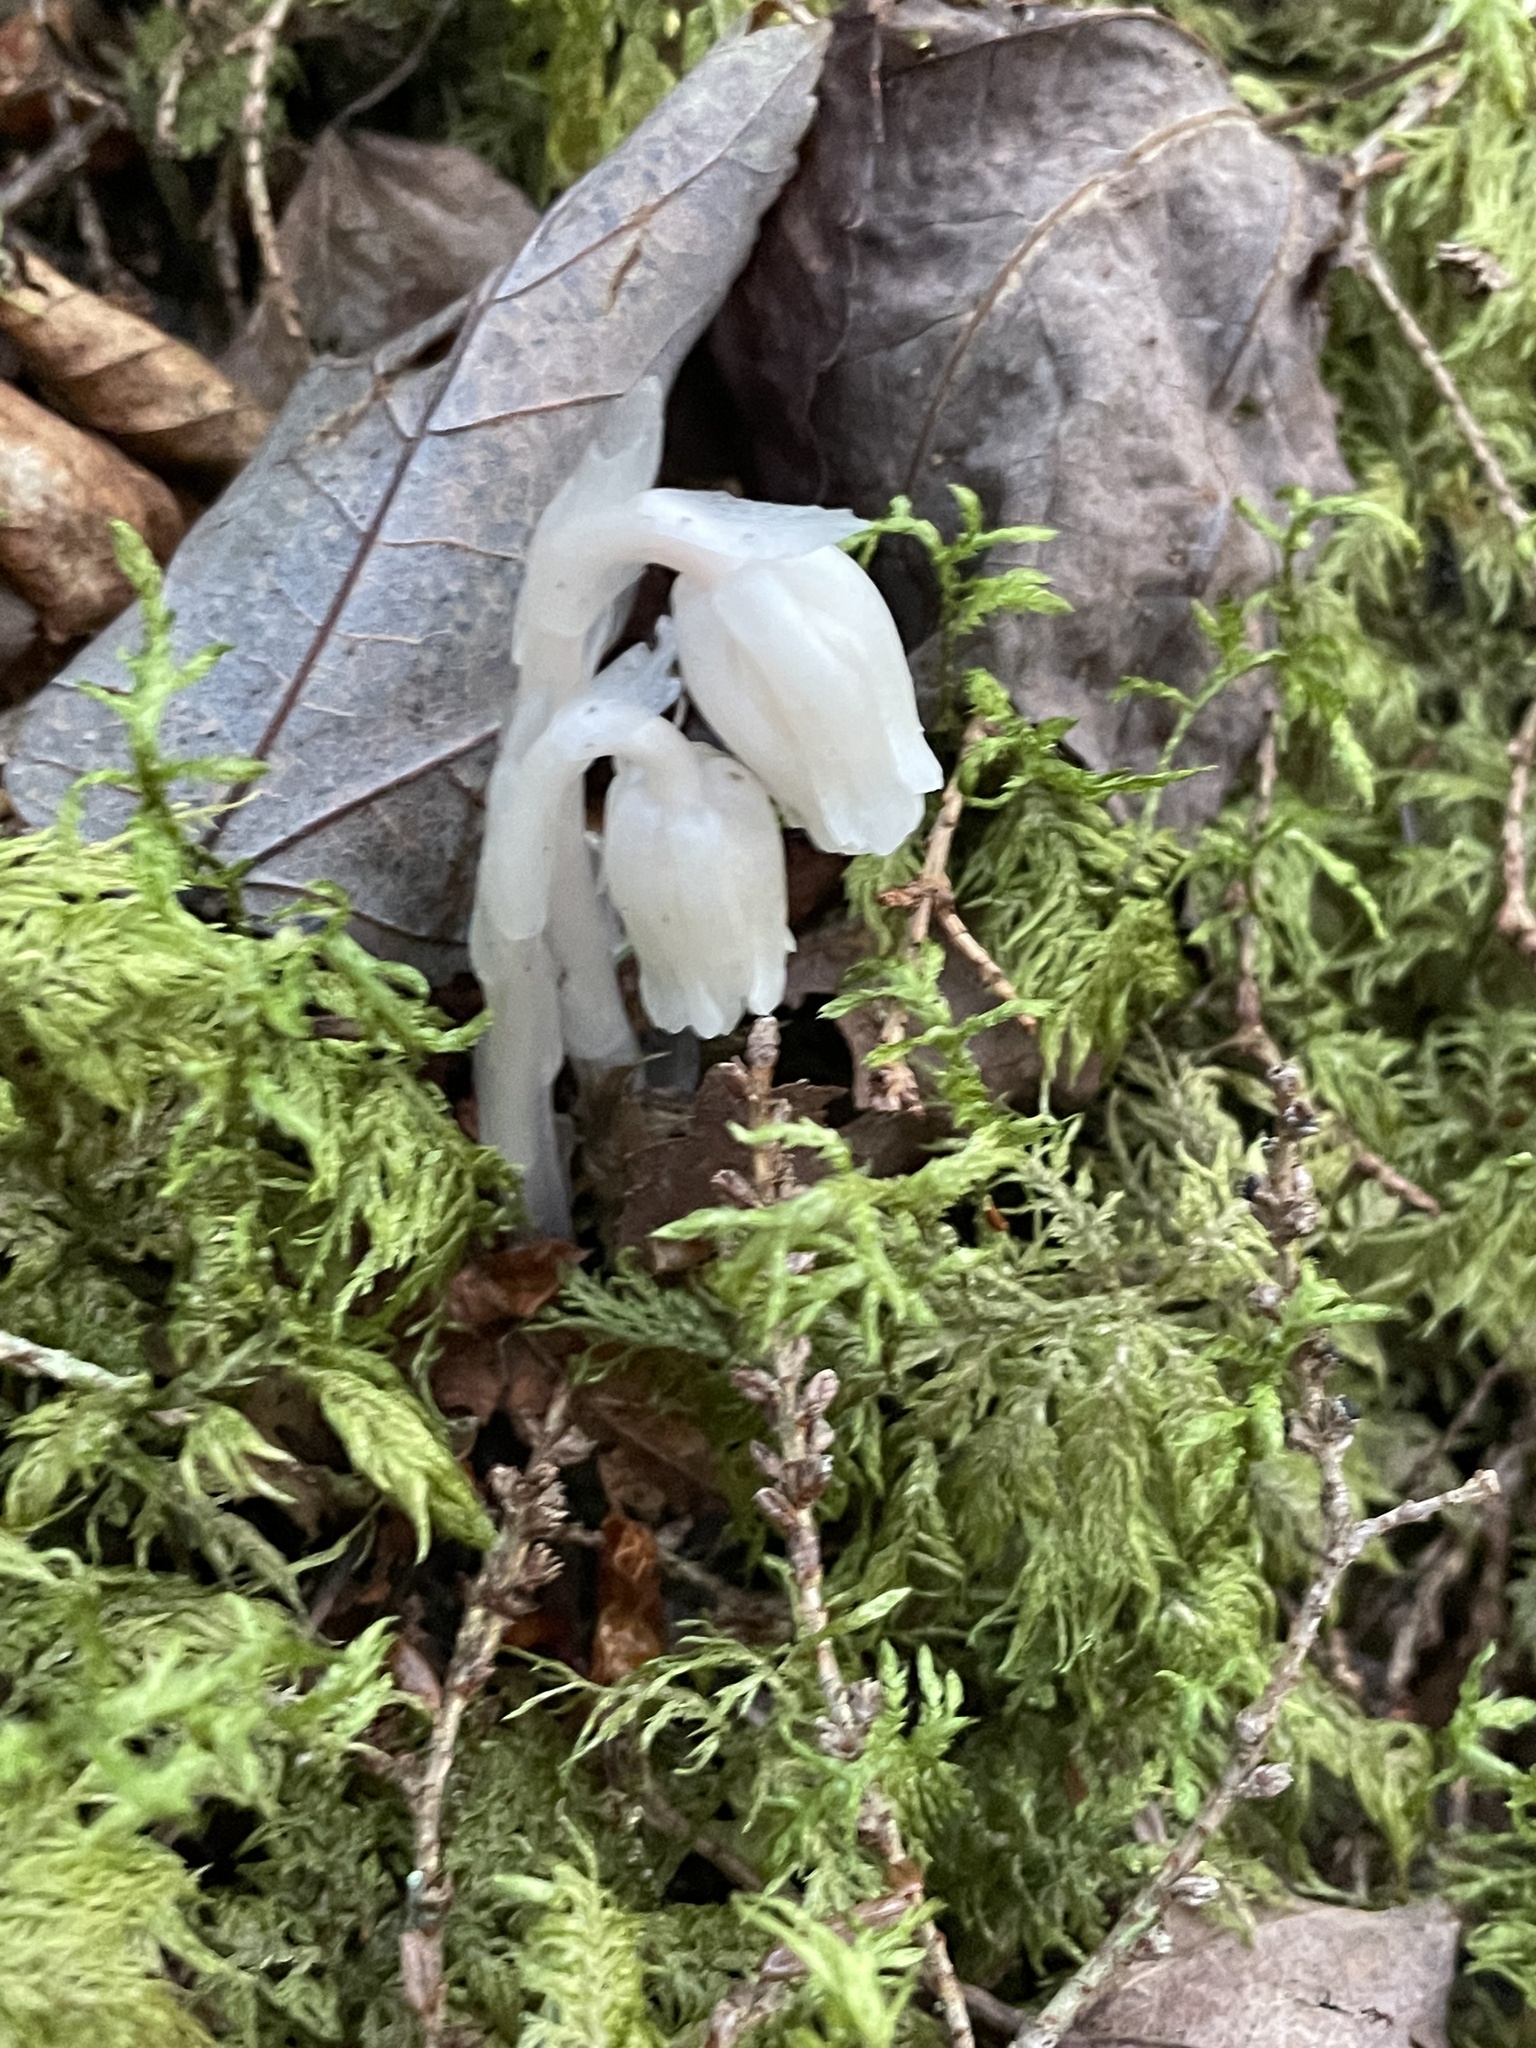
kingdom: Plantae
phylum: Tracheophyta
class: Magnoliopsida
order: Ericales
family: Ericaceae
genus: Monotropa
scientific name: Monotropa uniflora
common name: Convulsion root
